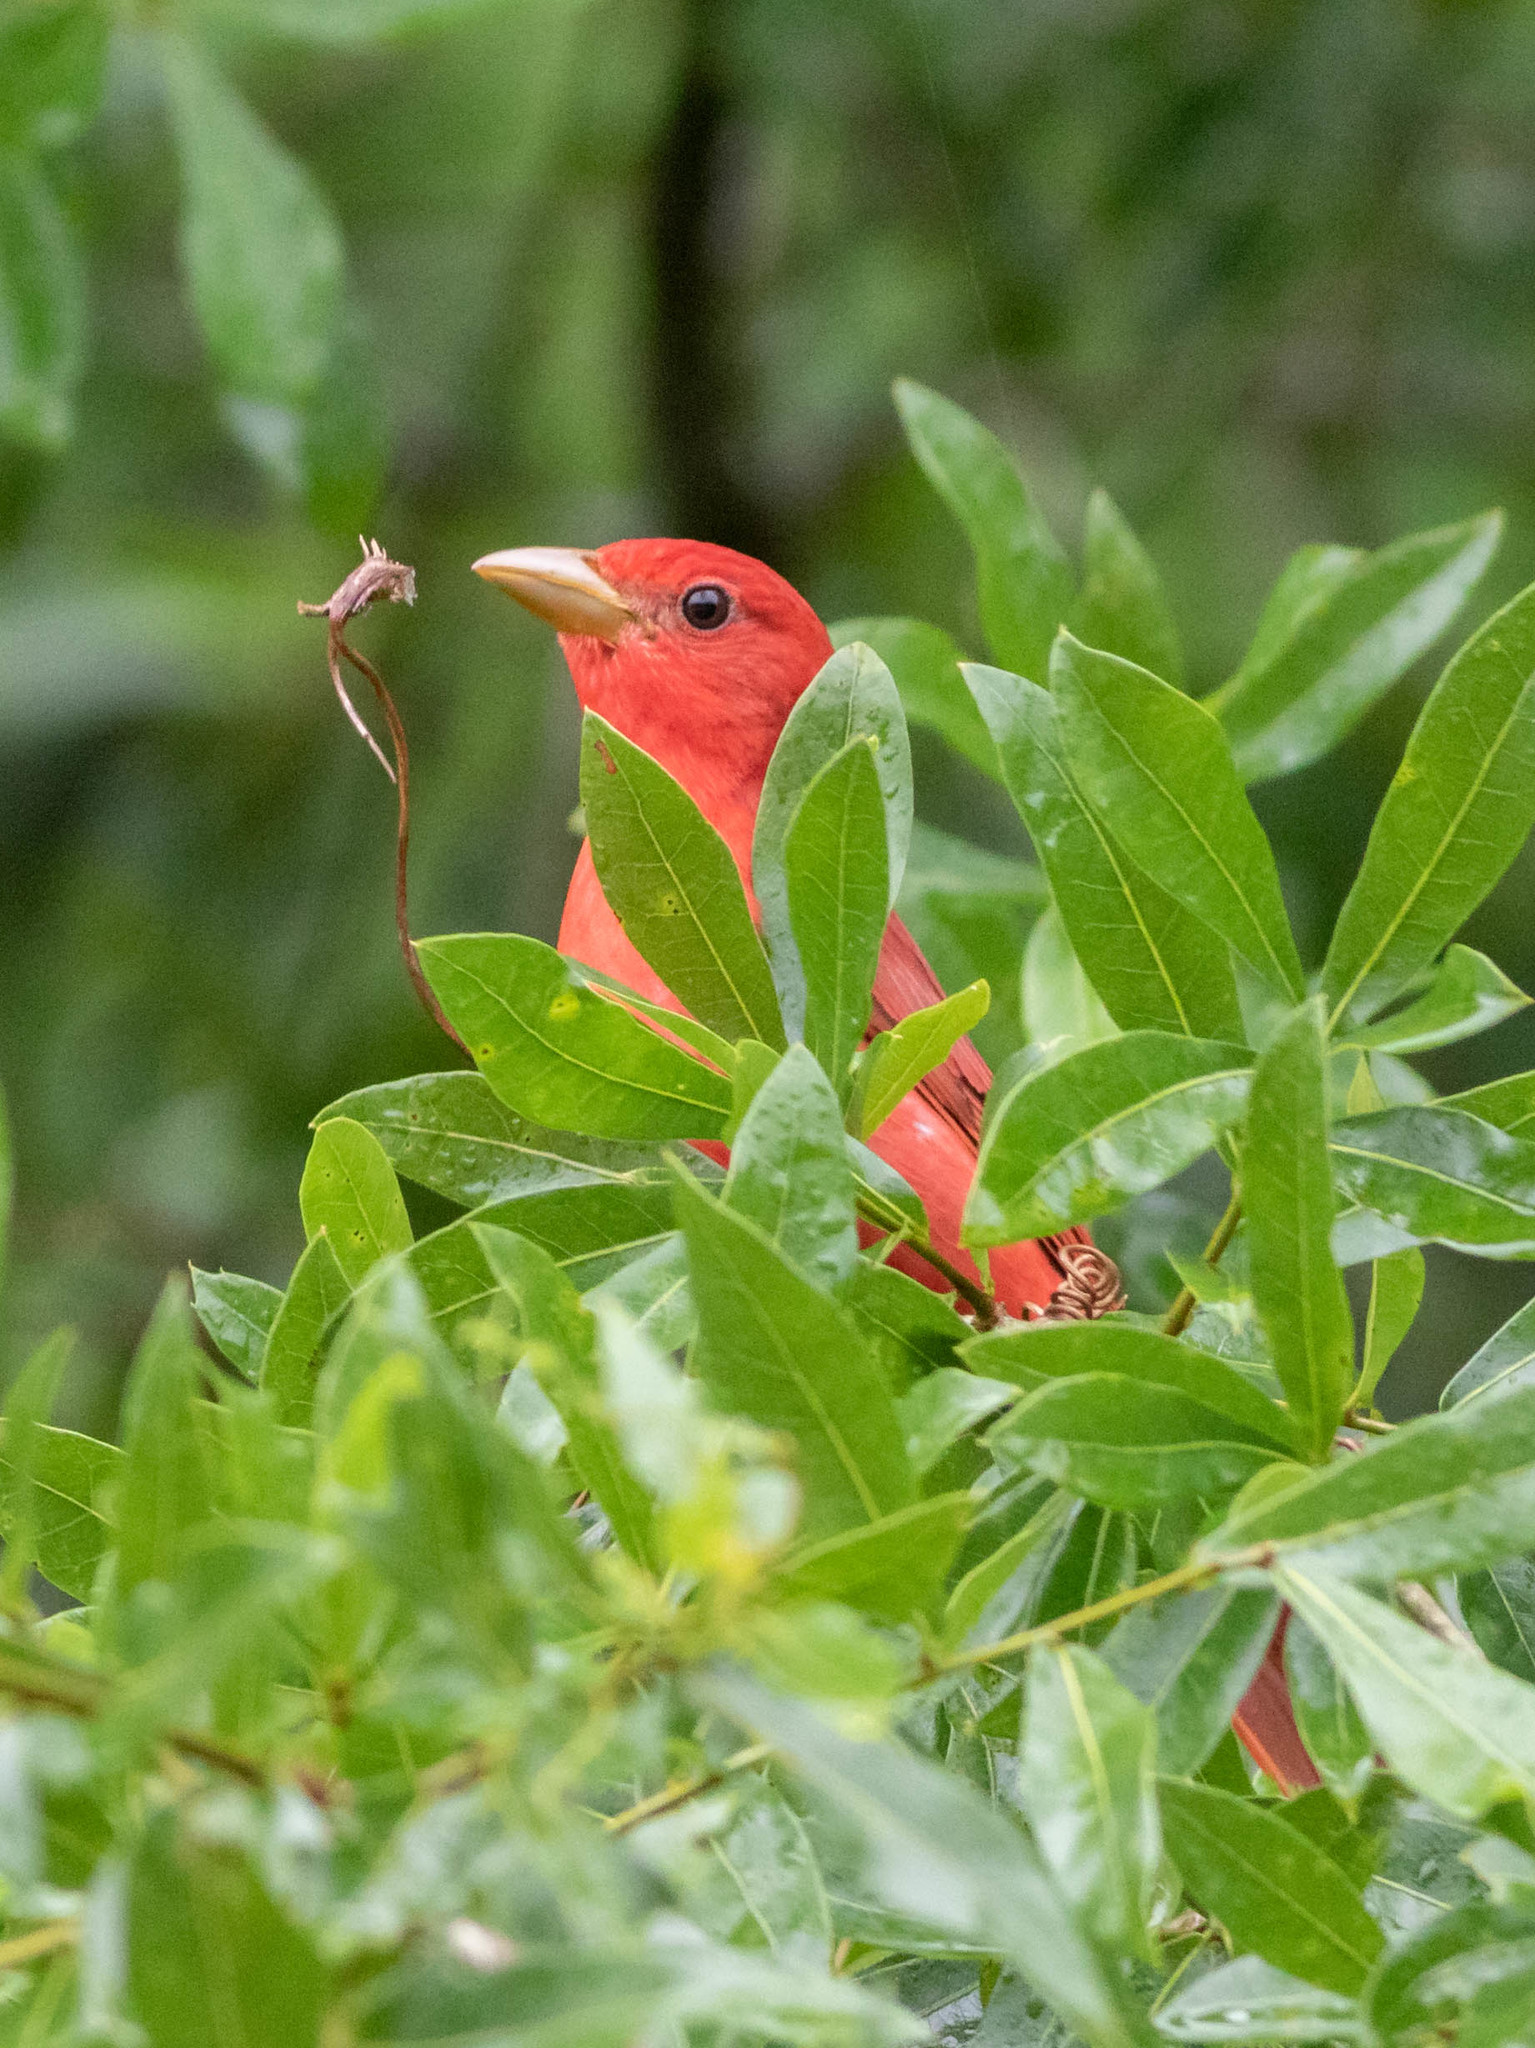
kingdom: Animalia
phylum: Chordata
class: Aves
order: Passeriformes
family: Cardinalidae
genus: Piranga
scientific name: Piranga rubra
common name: Summer tanager
